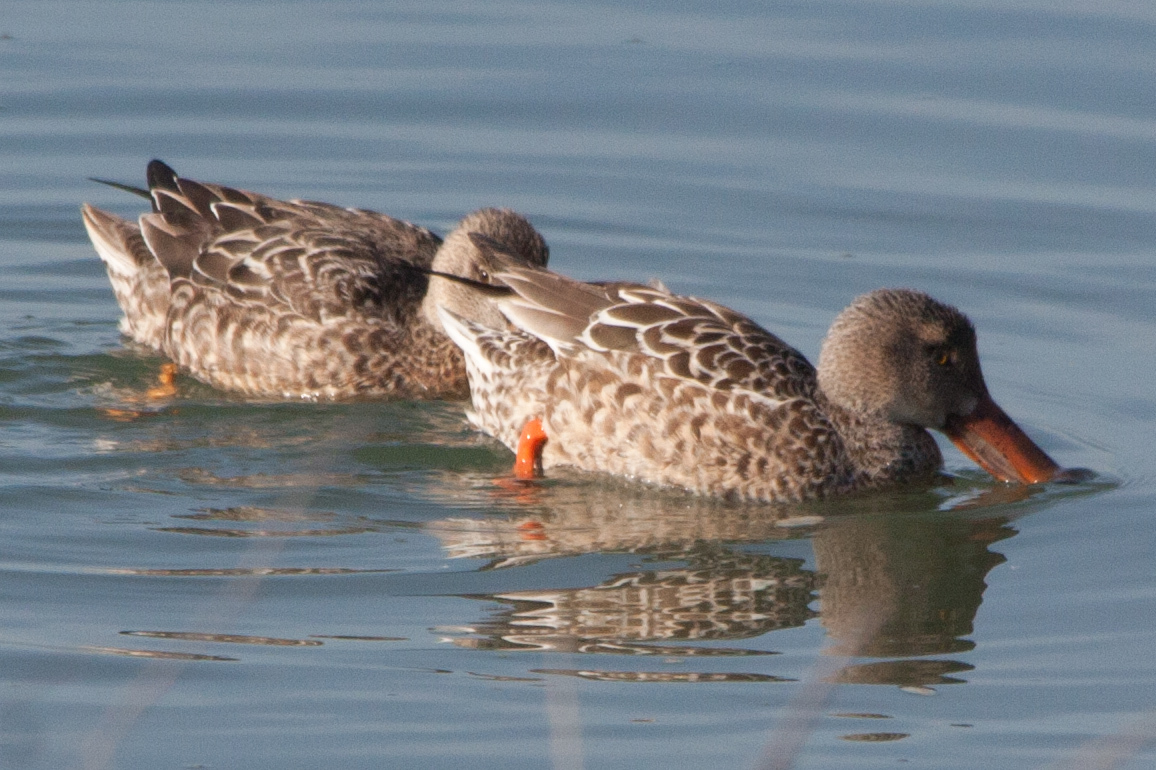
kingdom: Animalia
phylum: Chordata
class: Aves
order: Anseriformes
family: Anatidae
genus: Spatula
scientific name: Spatula clypeata
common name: Northern shoveler
